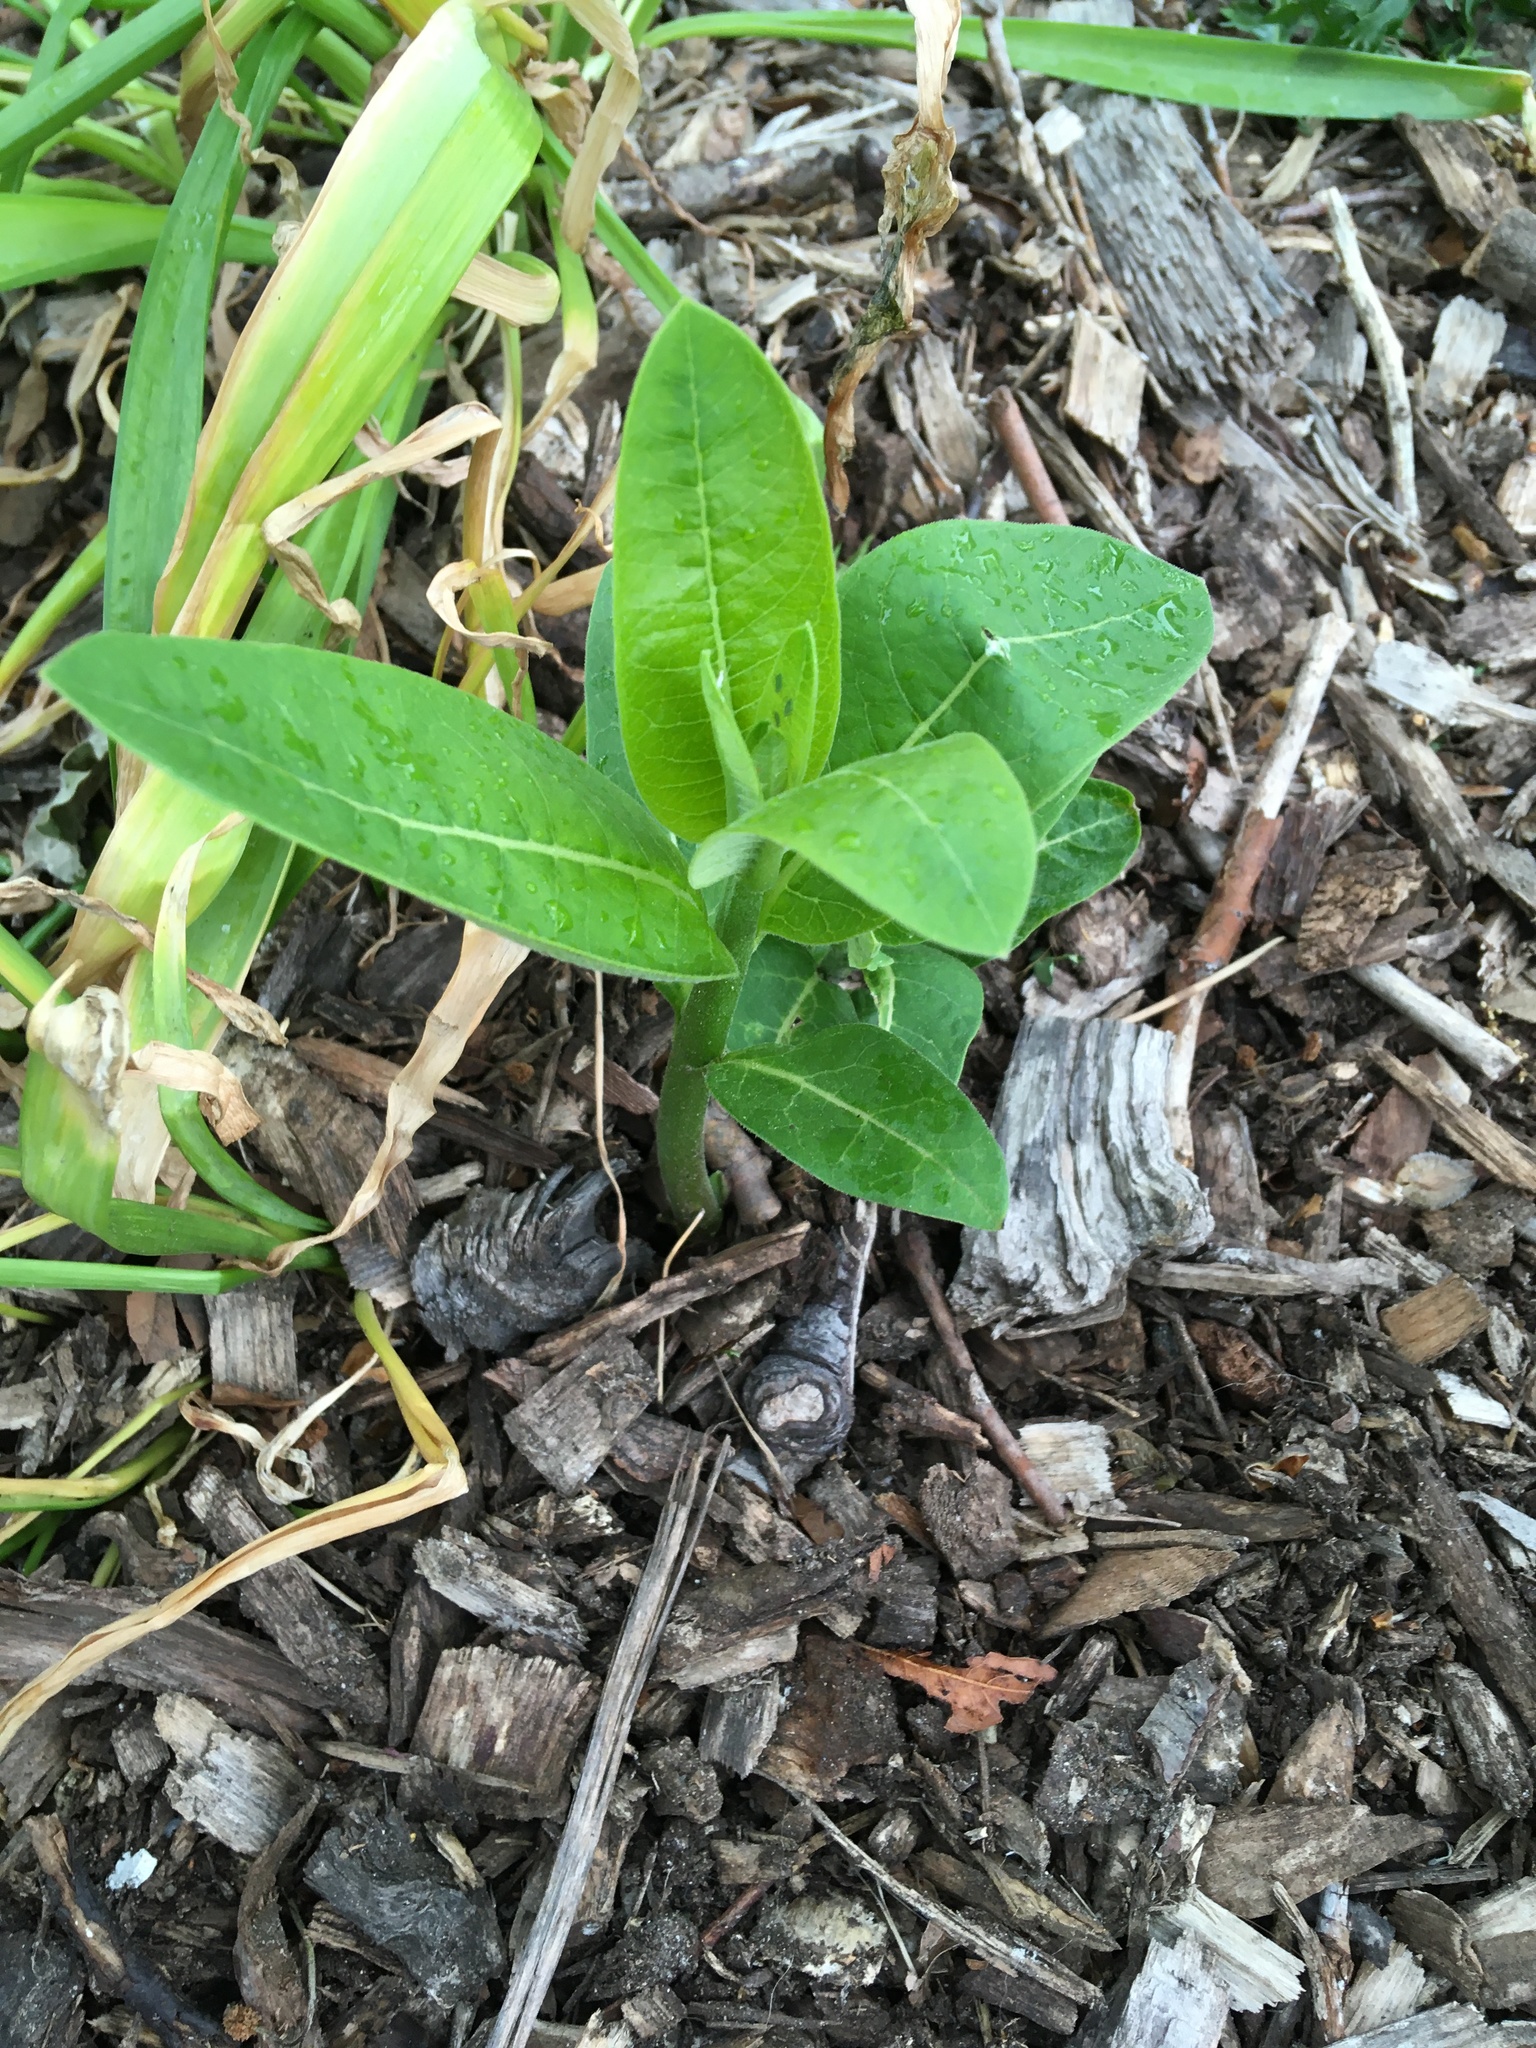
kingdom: Plantae
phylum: Tracheophyta
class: Magnoliopsida
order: Gentianales
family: Apocynaceae
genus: Asclepias
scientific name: Asclepias syriaca
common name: Common milkweed
